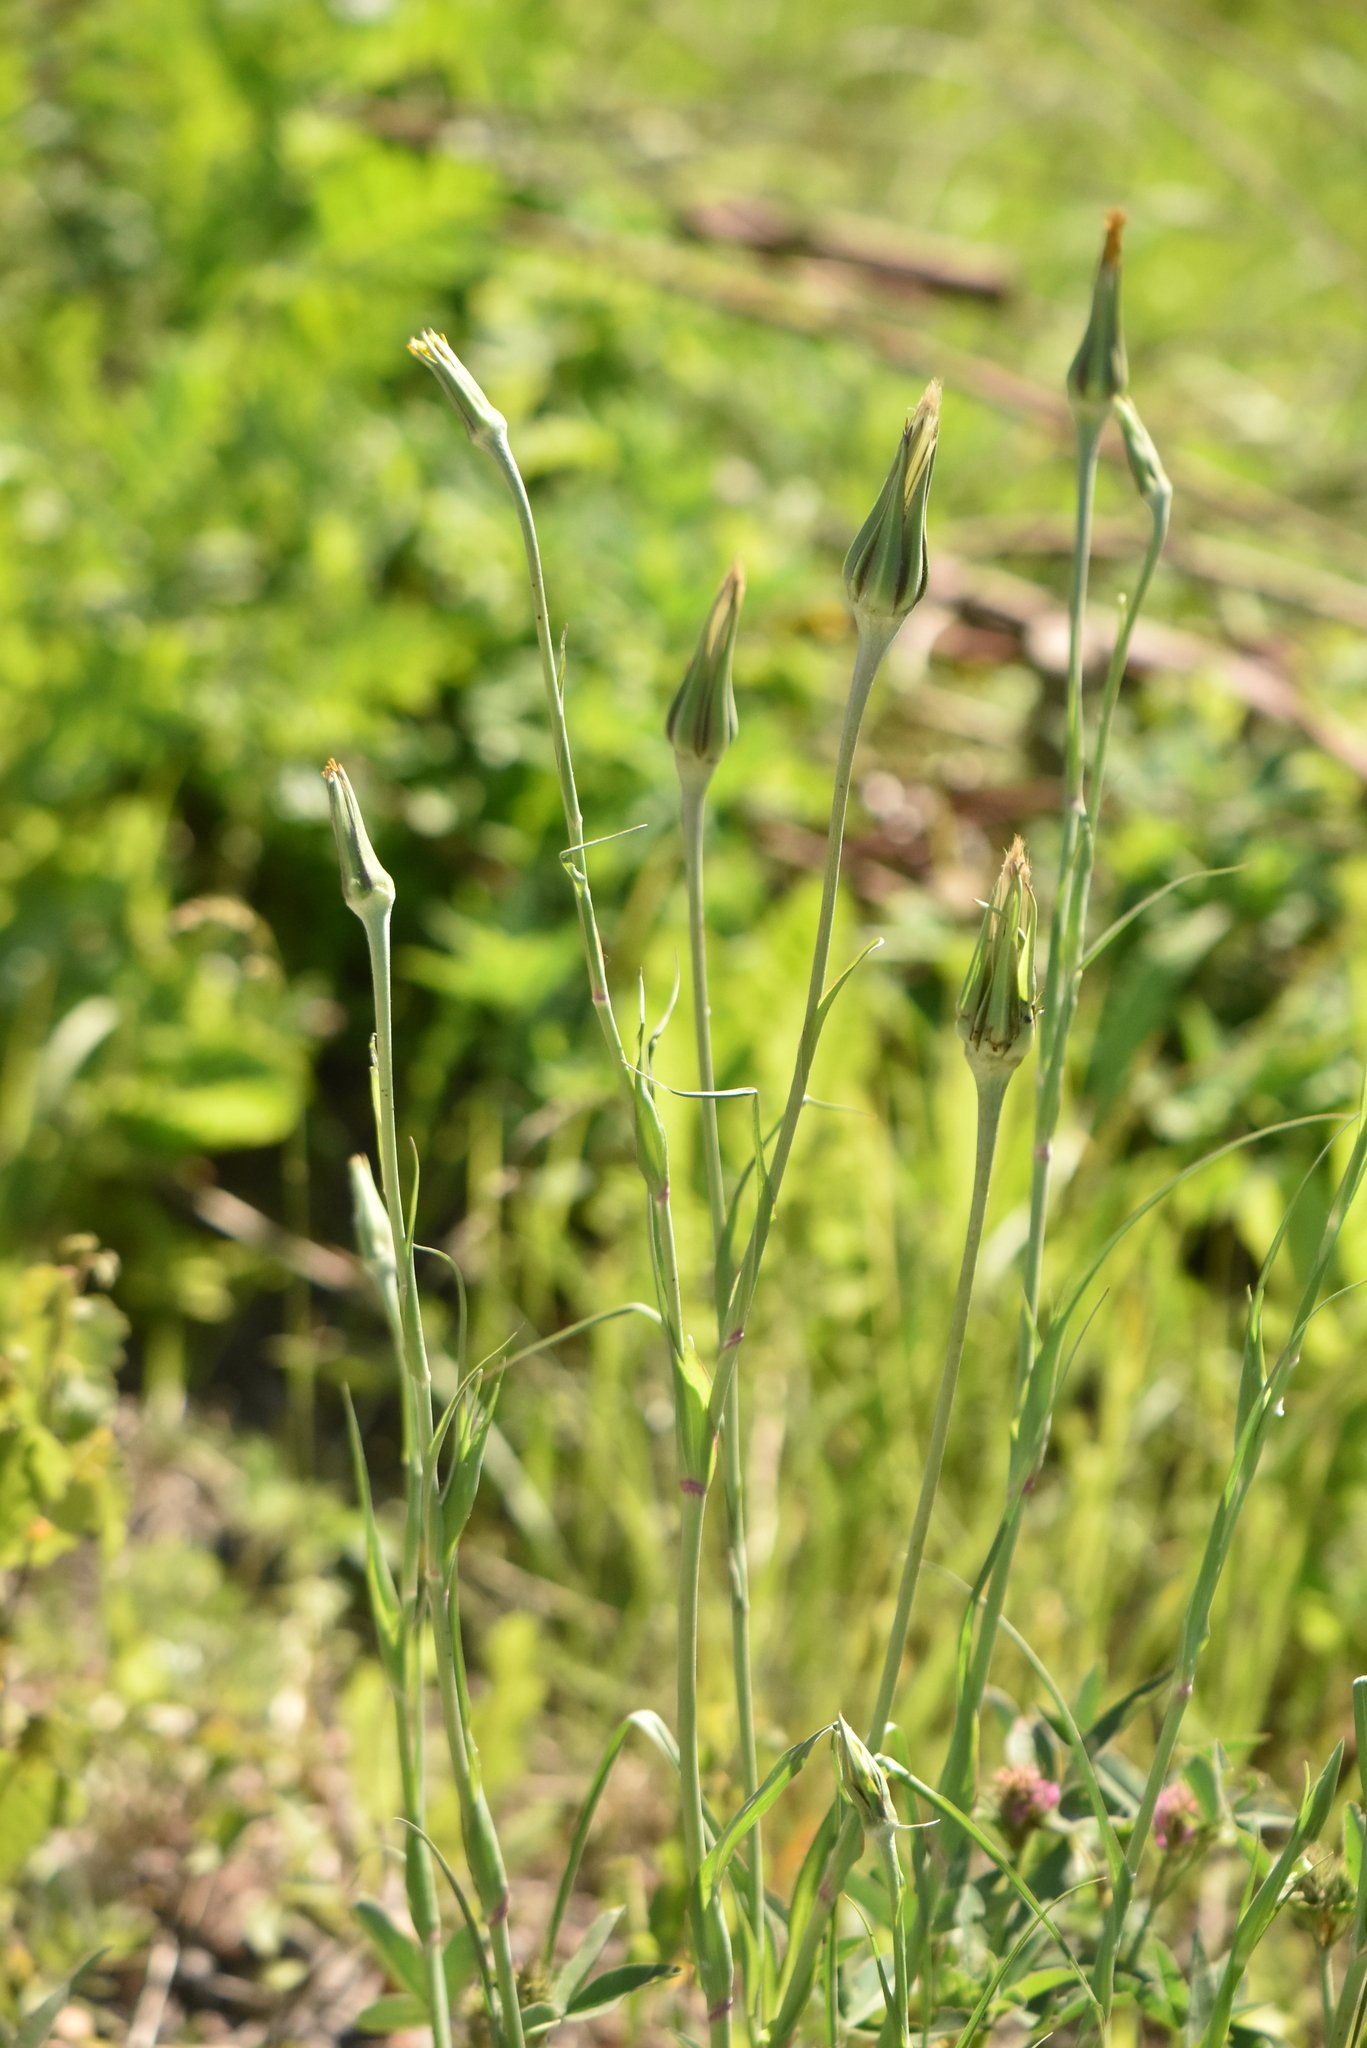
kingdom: Plantae
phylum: Tracheophyta
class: Magnoliopsida
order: Asterales
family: Asteraceae
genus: Tragopogon
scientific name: Tragopogon pratensis
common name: Goat's-beard
